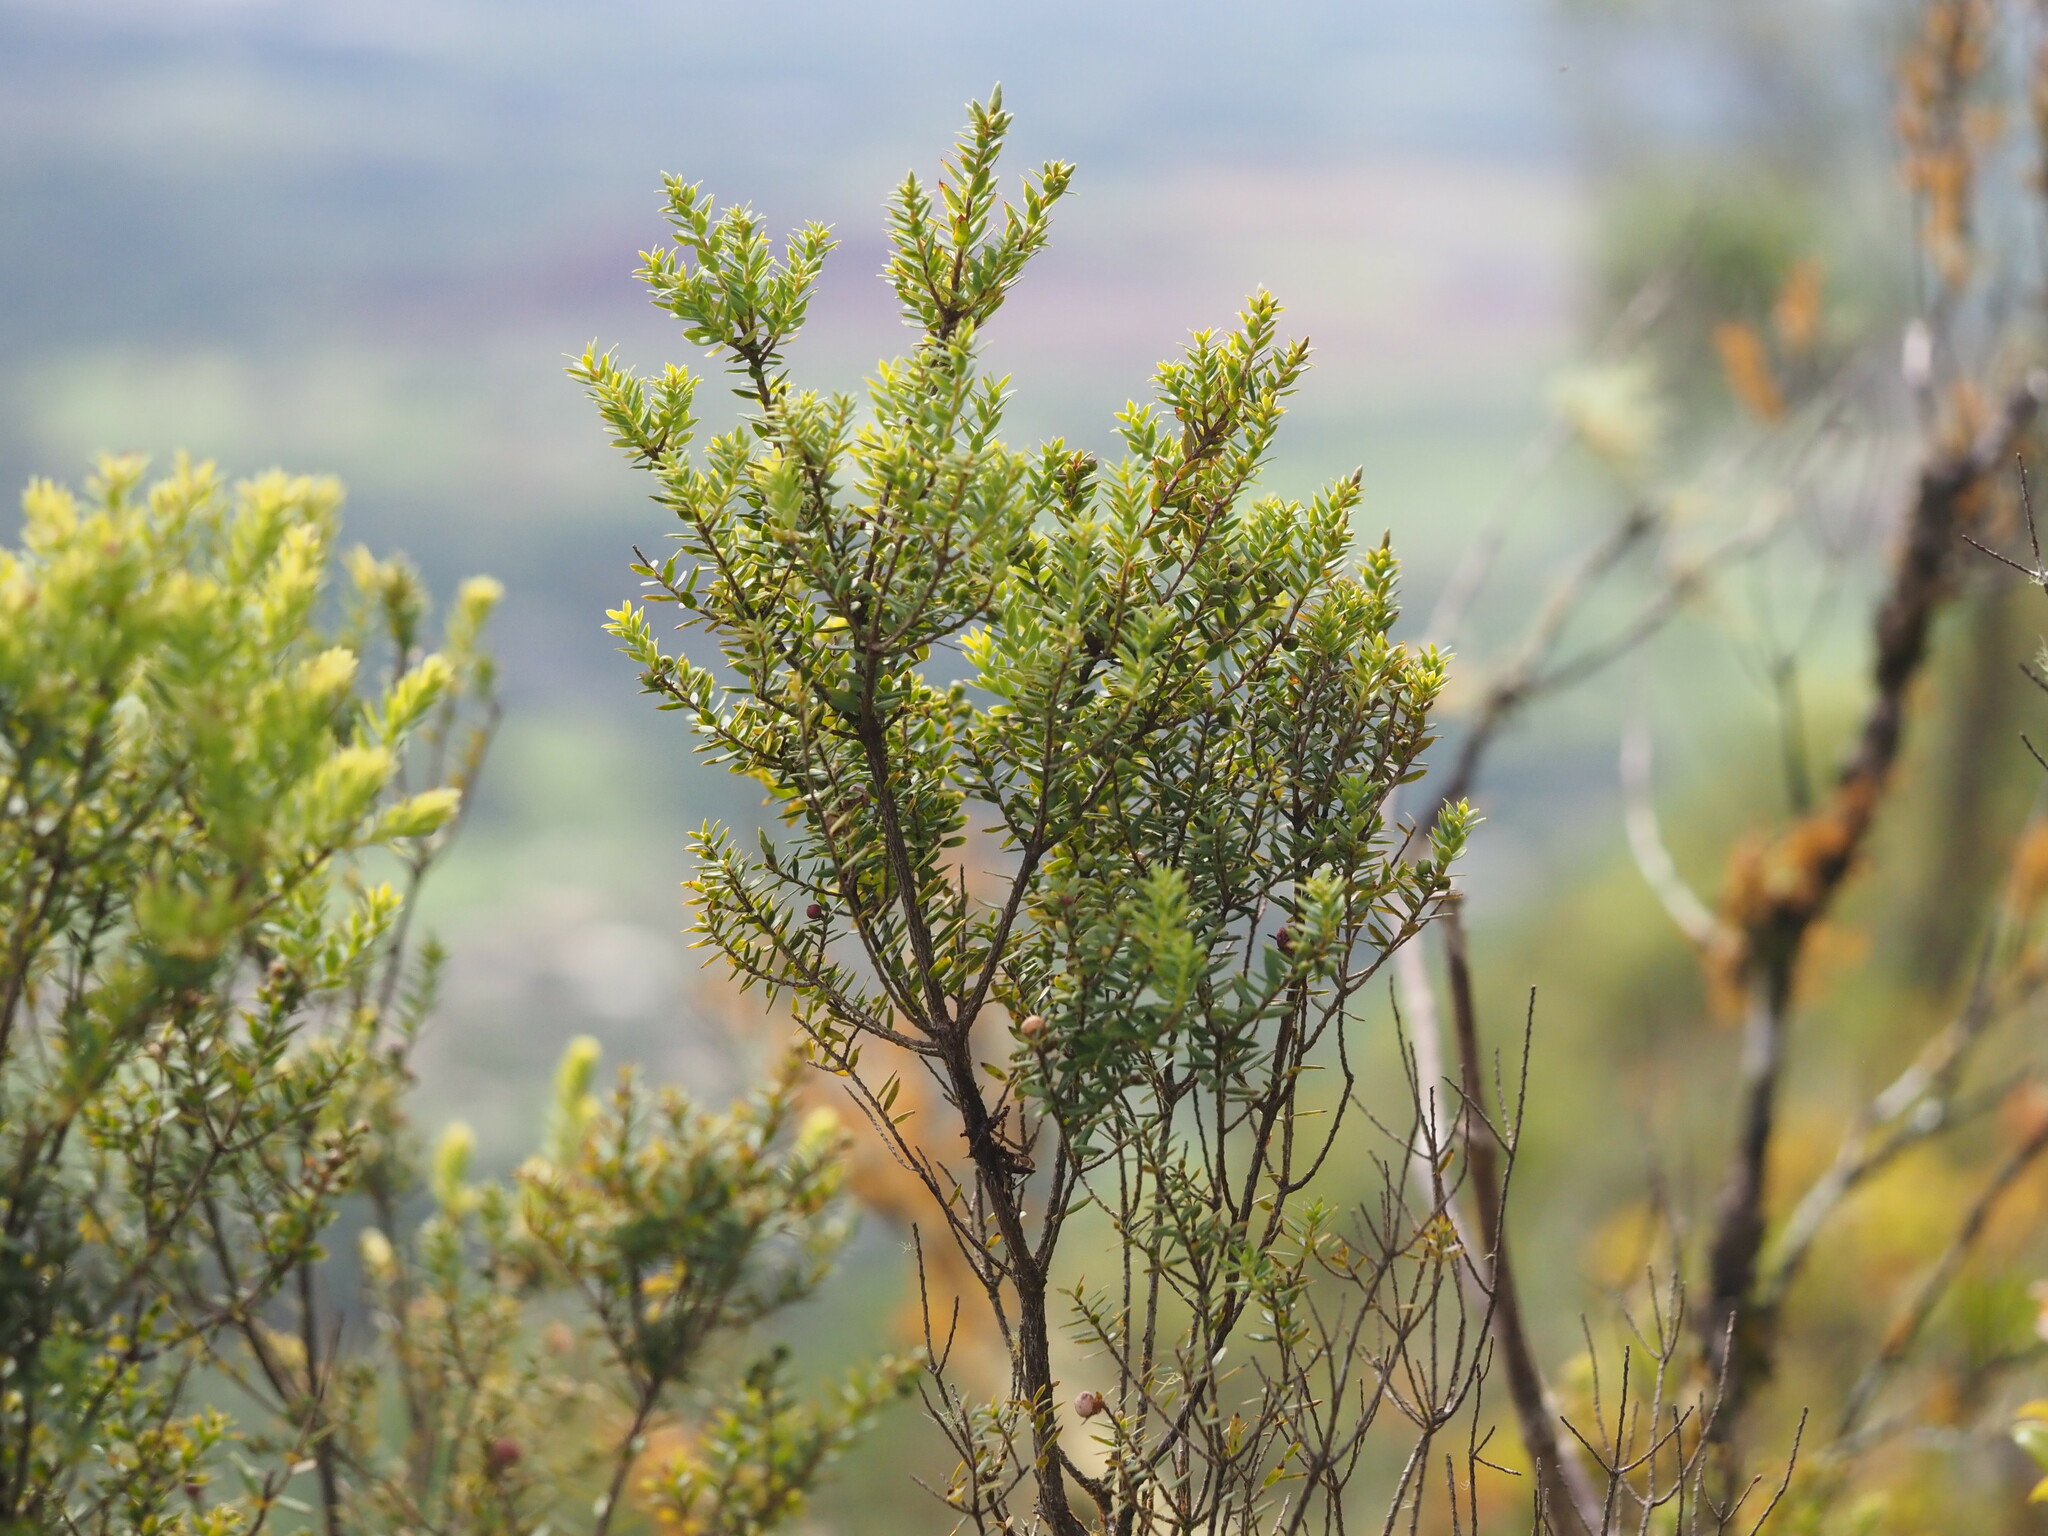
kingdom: Plantae
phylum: Tracheophyta
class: Magnoliopsida
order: Ericales
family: Ericaceae
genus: Leptecophylla
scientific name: Leptecophylla tameiameiae
